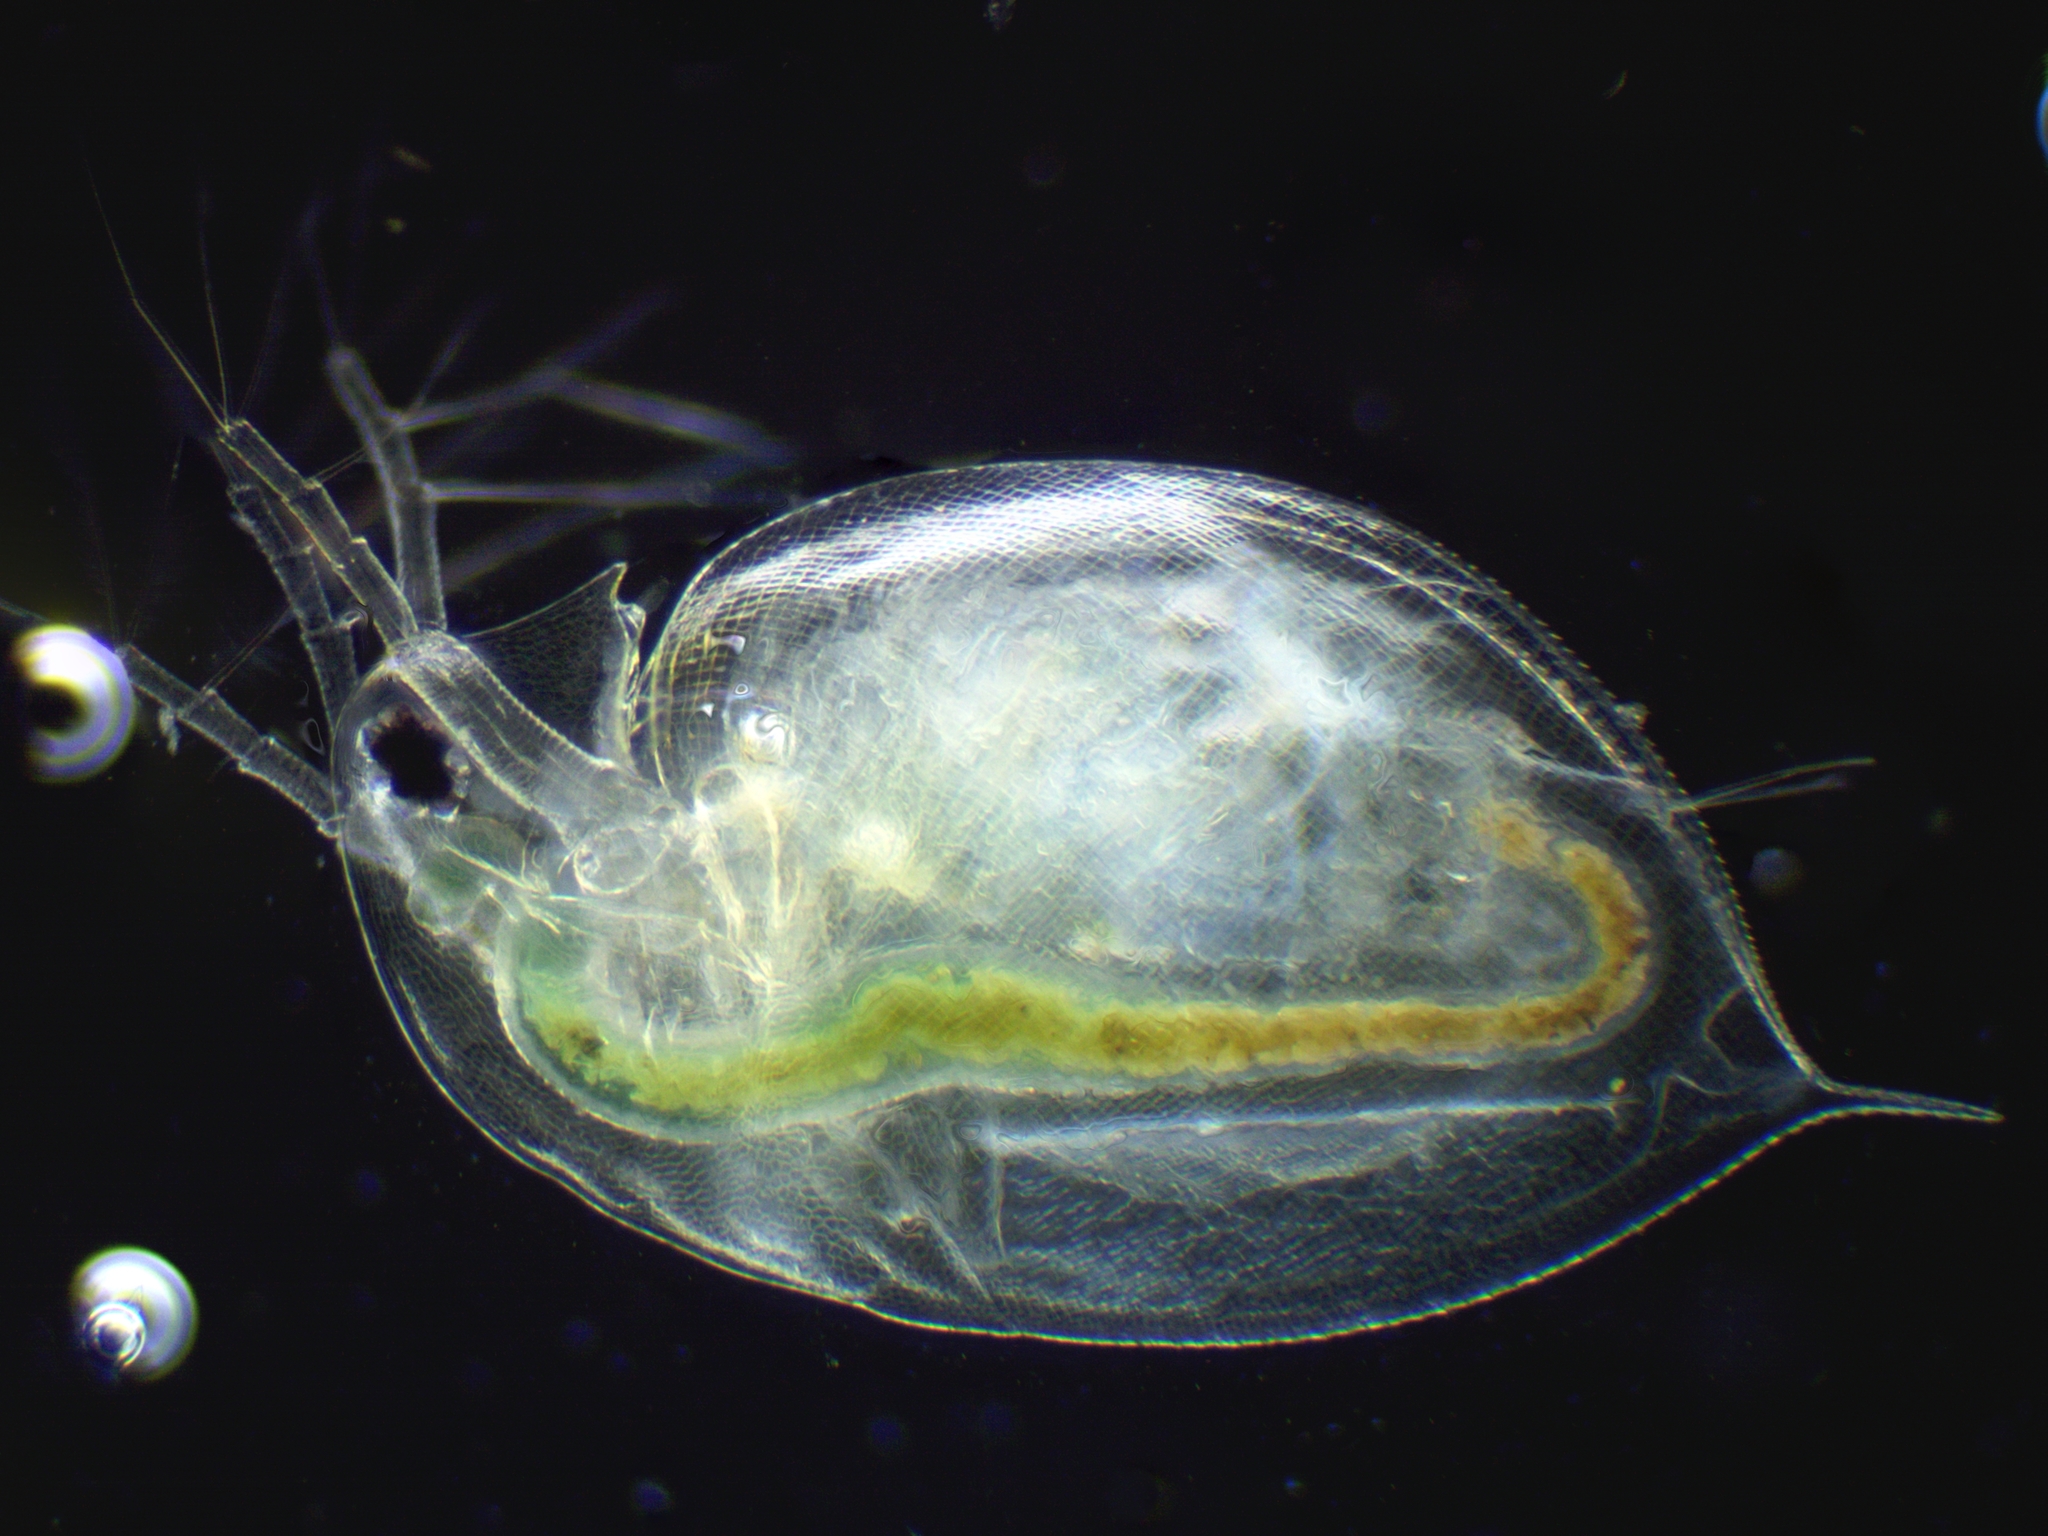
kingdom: Animalia
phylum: Arthropoda
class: Branchiopoda
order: Diplostraca
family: Daphniidae
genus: Daphnia
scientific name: Daphnia pulex
